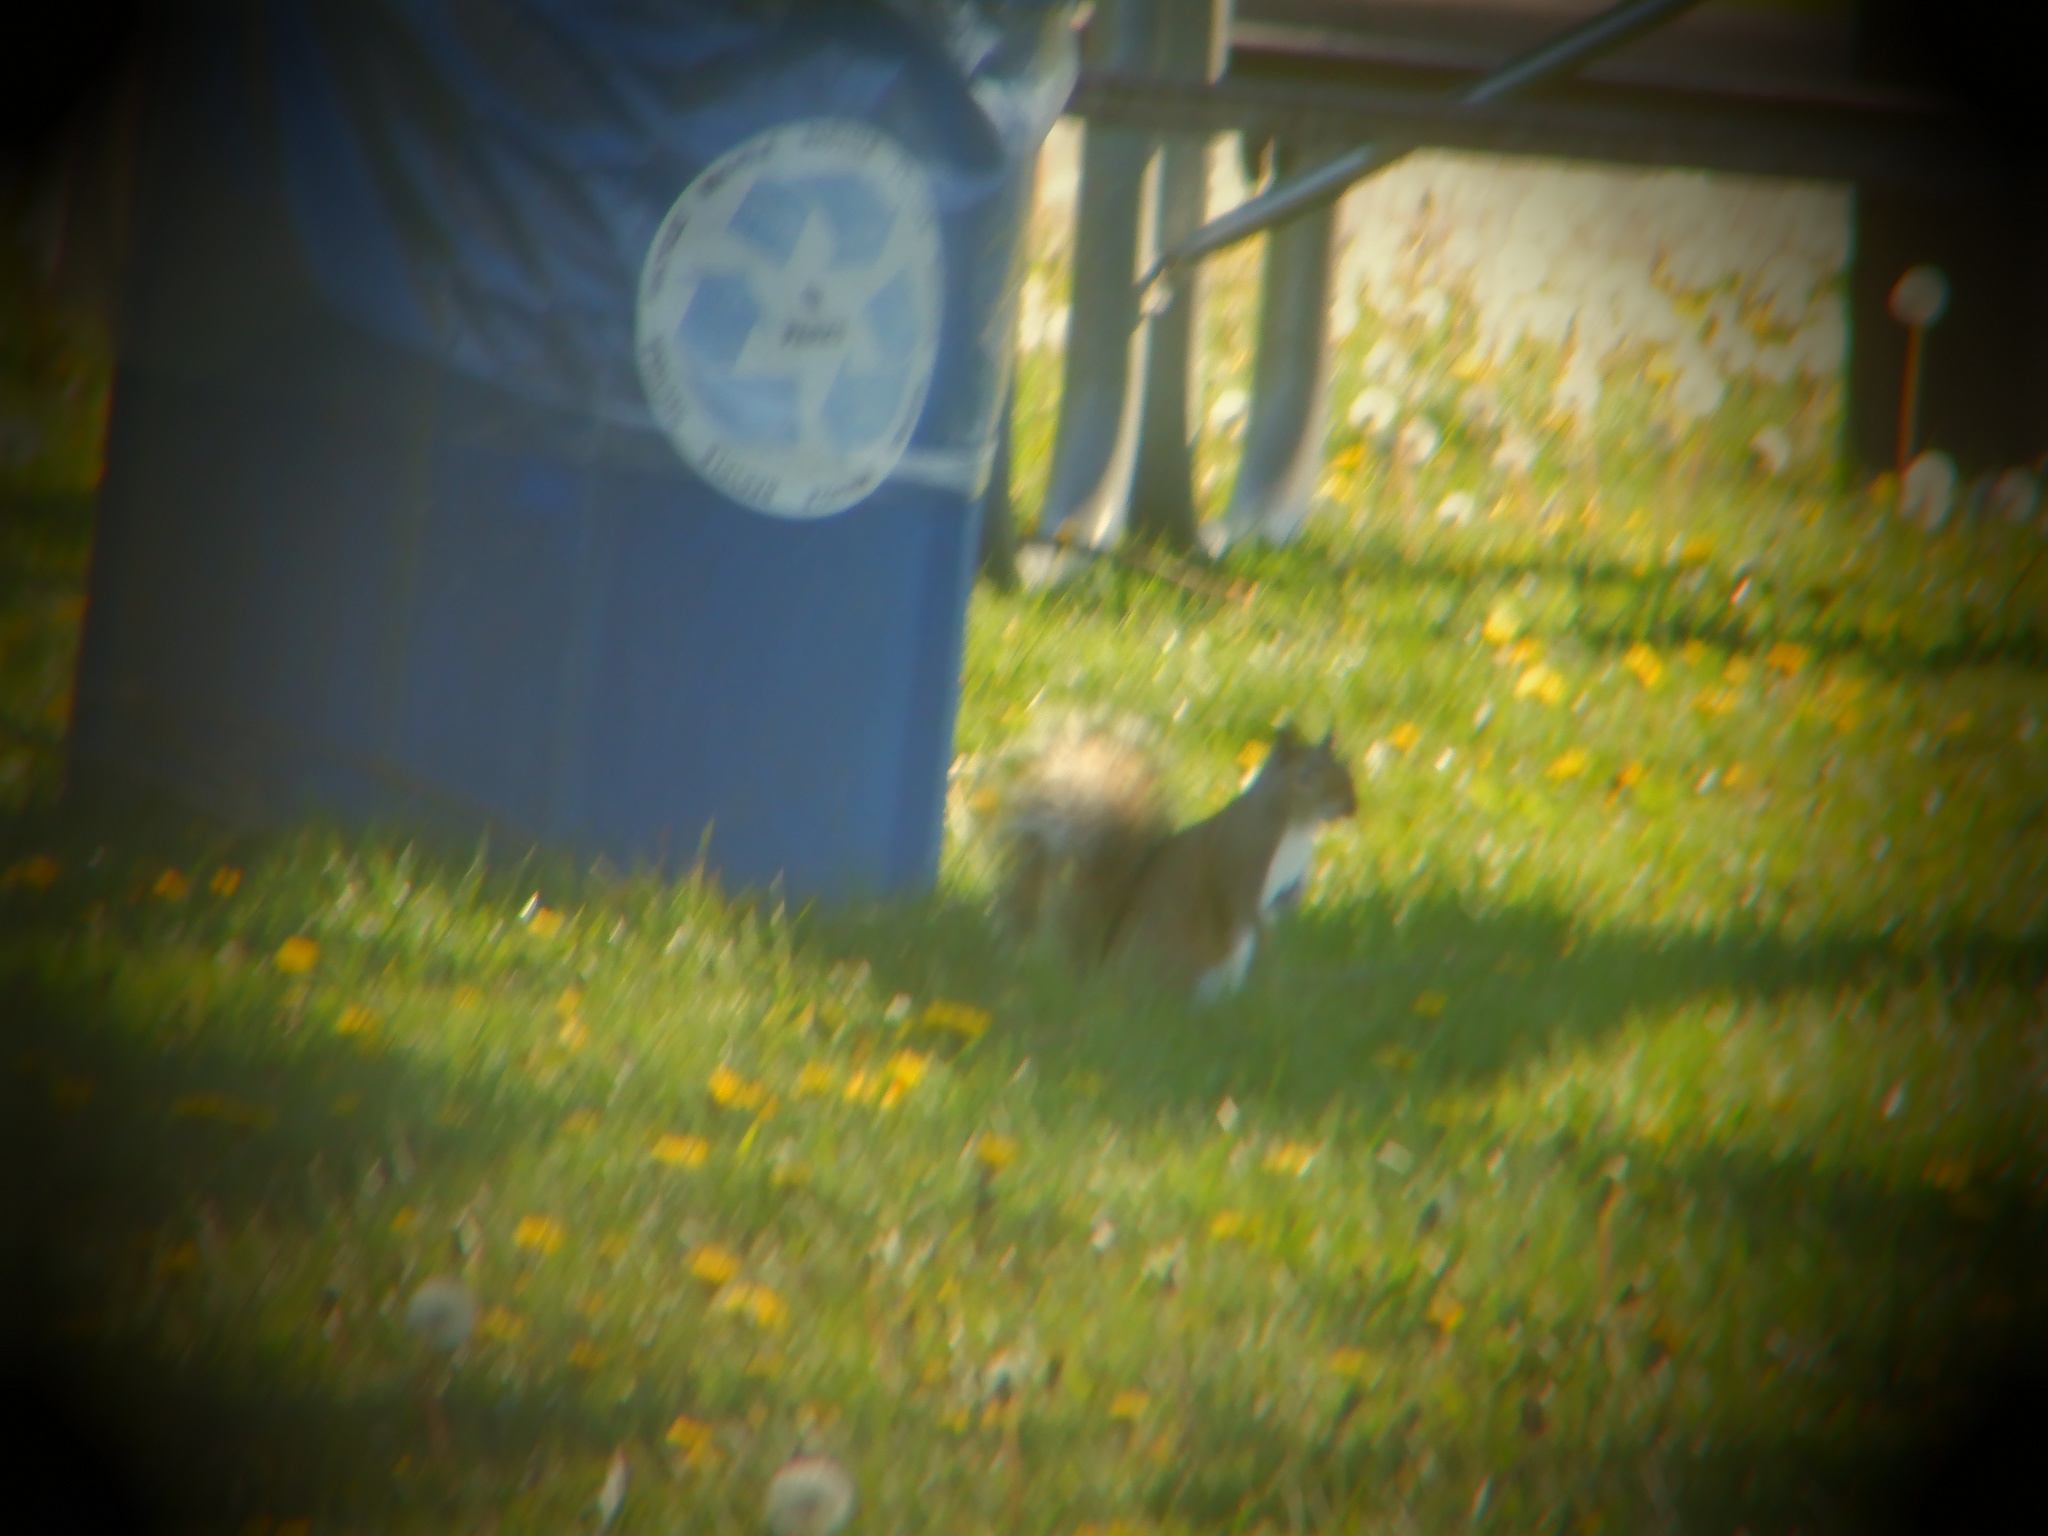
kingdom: Animalia
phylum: Chordata
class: Mammalia
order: Rodentia
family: Sciuridae
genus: Sciurus
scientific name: Sciurus carolinensis
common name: Eastern gray squirrel
